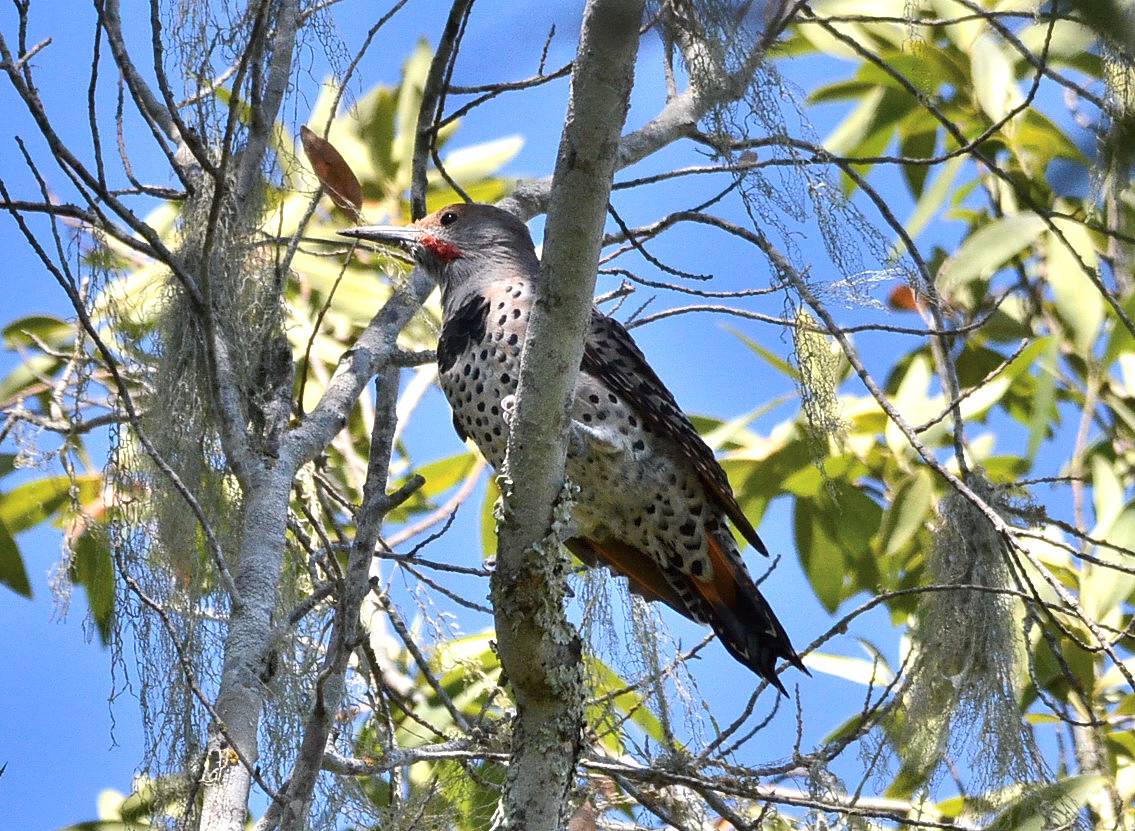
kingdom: Animalia
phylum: Chordata
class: Aves
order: Piciformes
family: Picidae
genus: Colaptes
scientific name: Colaptes auratus
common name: Northern flicker
